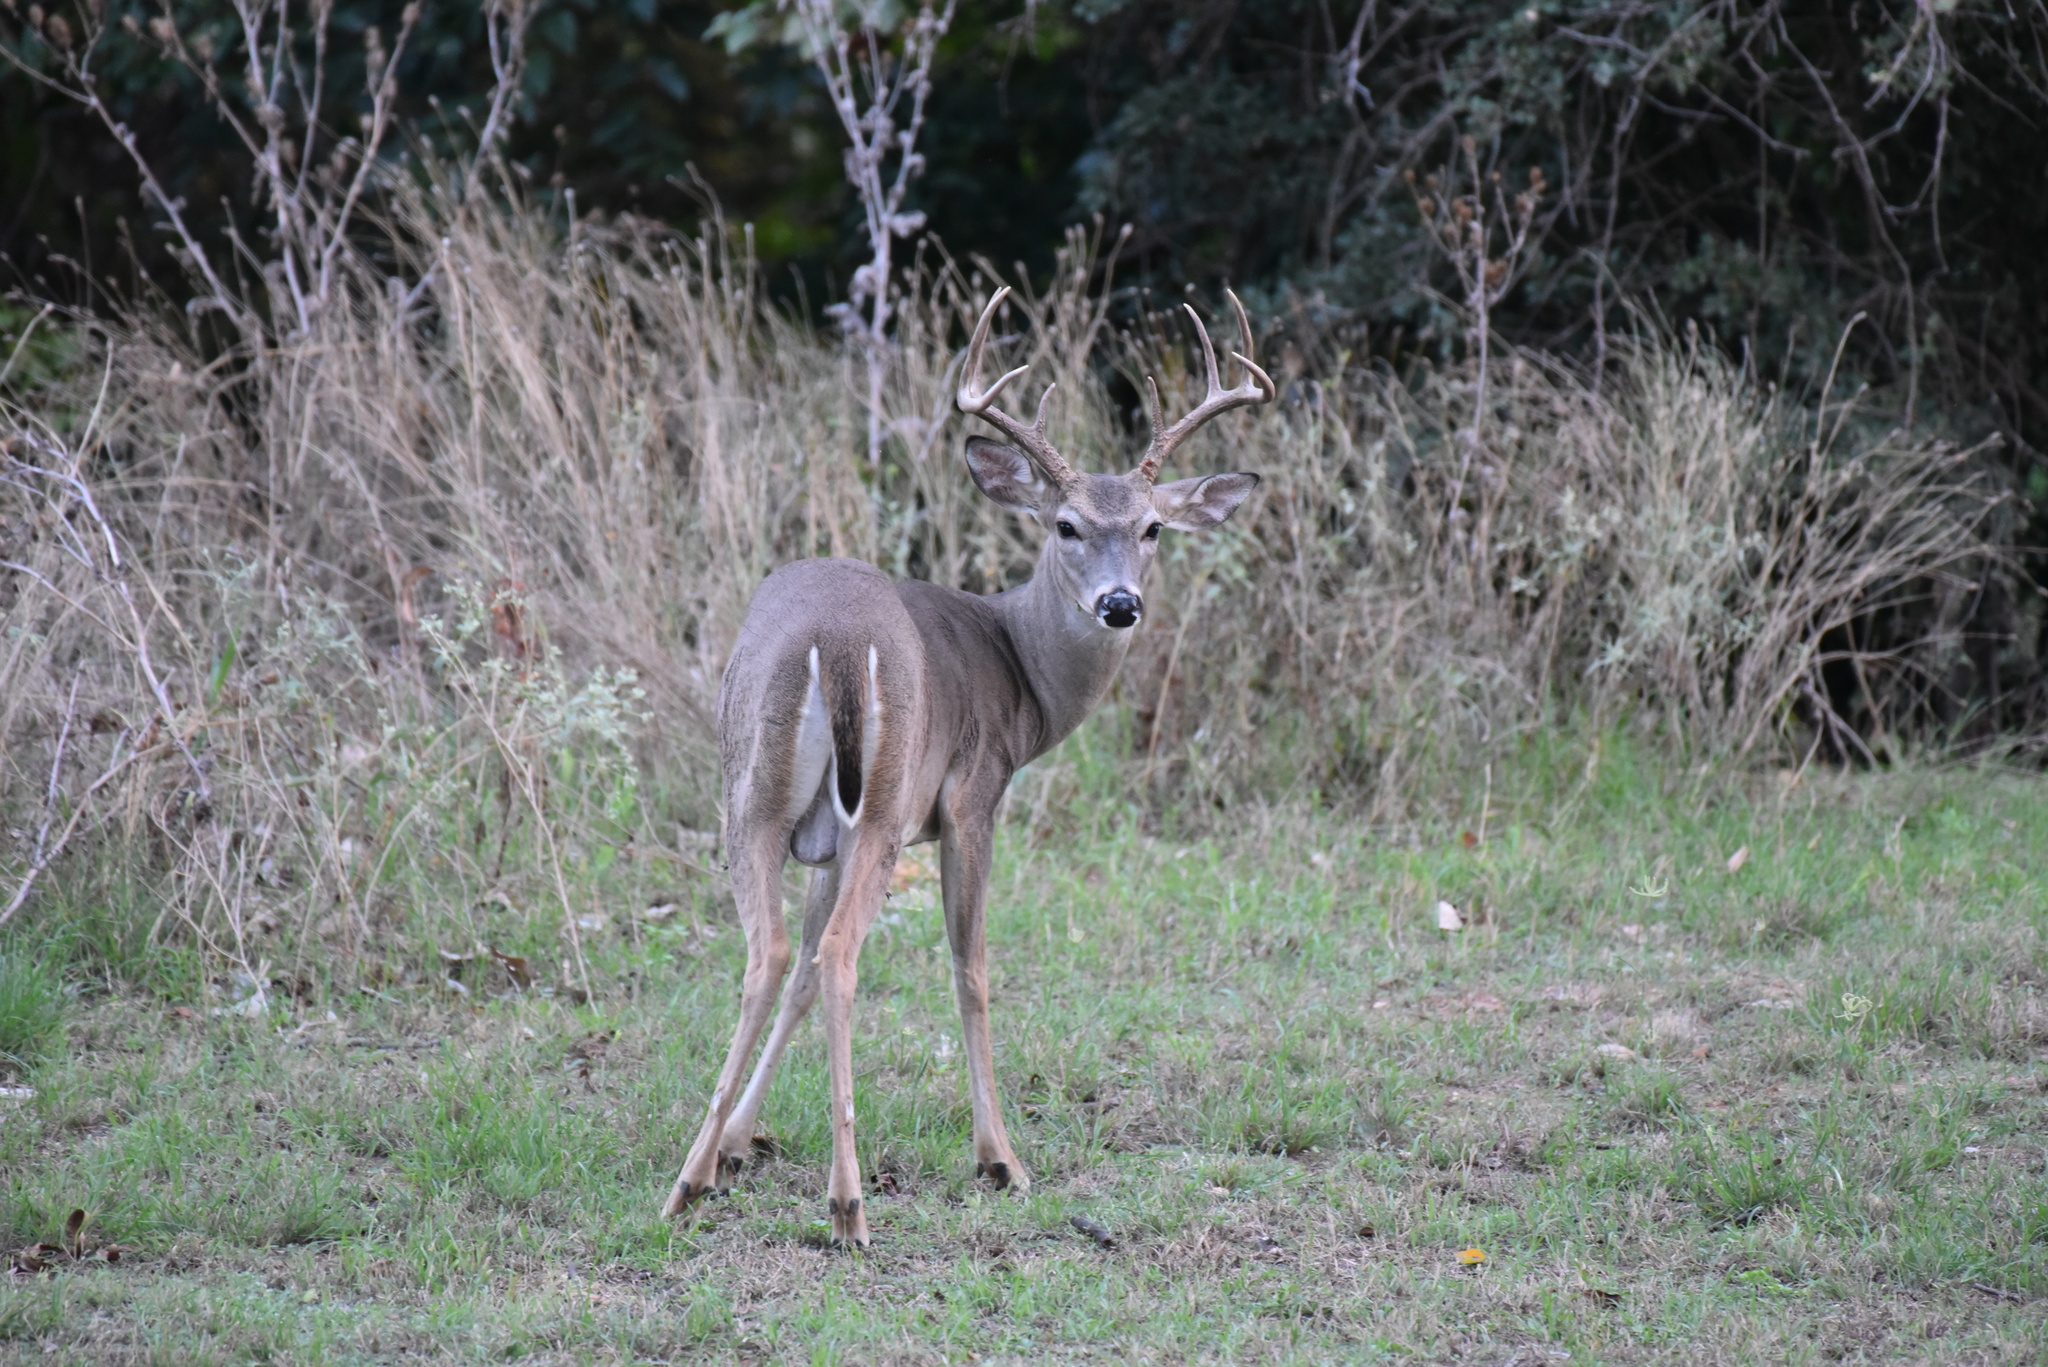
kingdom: Animalia
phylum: Chordata
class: Mammalia
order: Artiodactyla
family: Cervidae
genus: Odocoileus
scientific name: Odocoileus virginianus
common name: White-tailed deer
